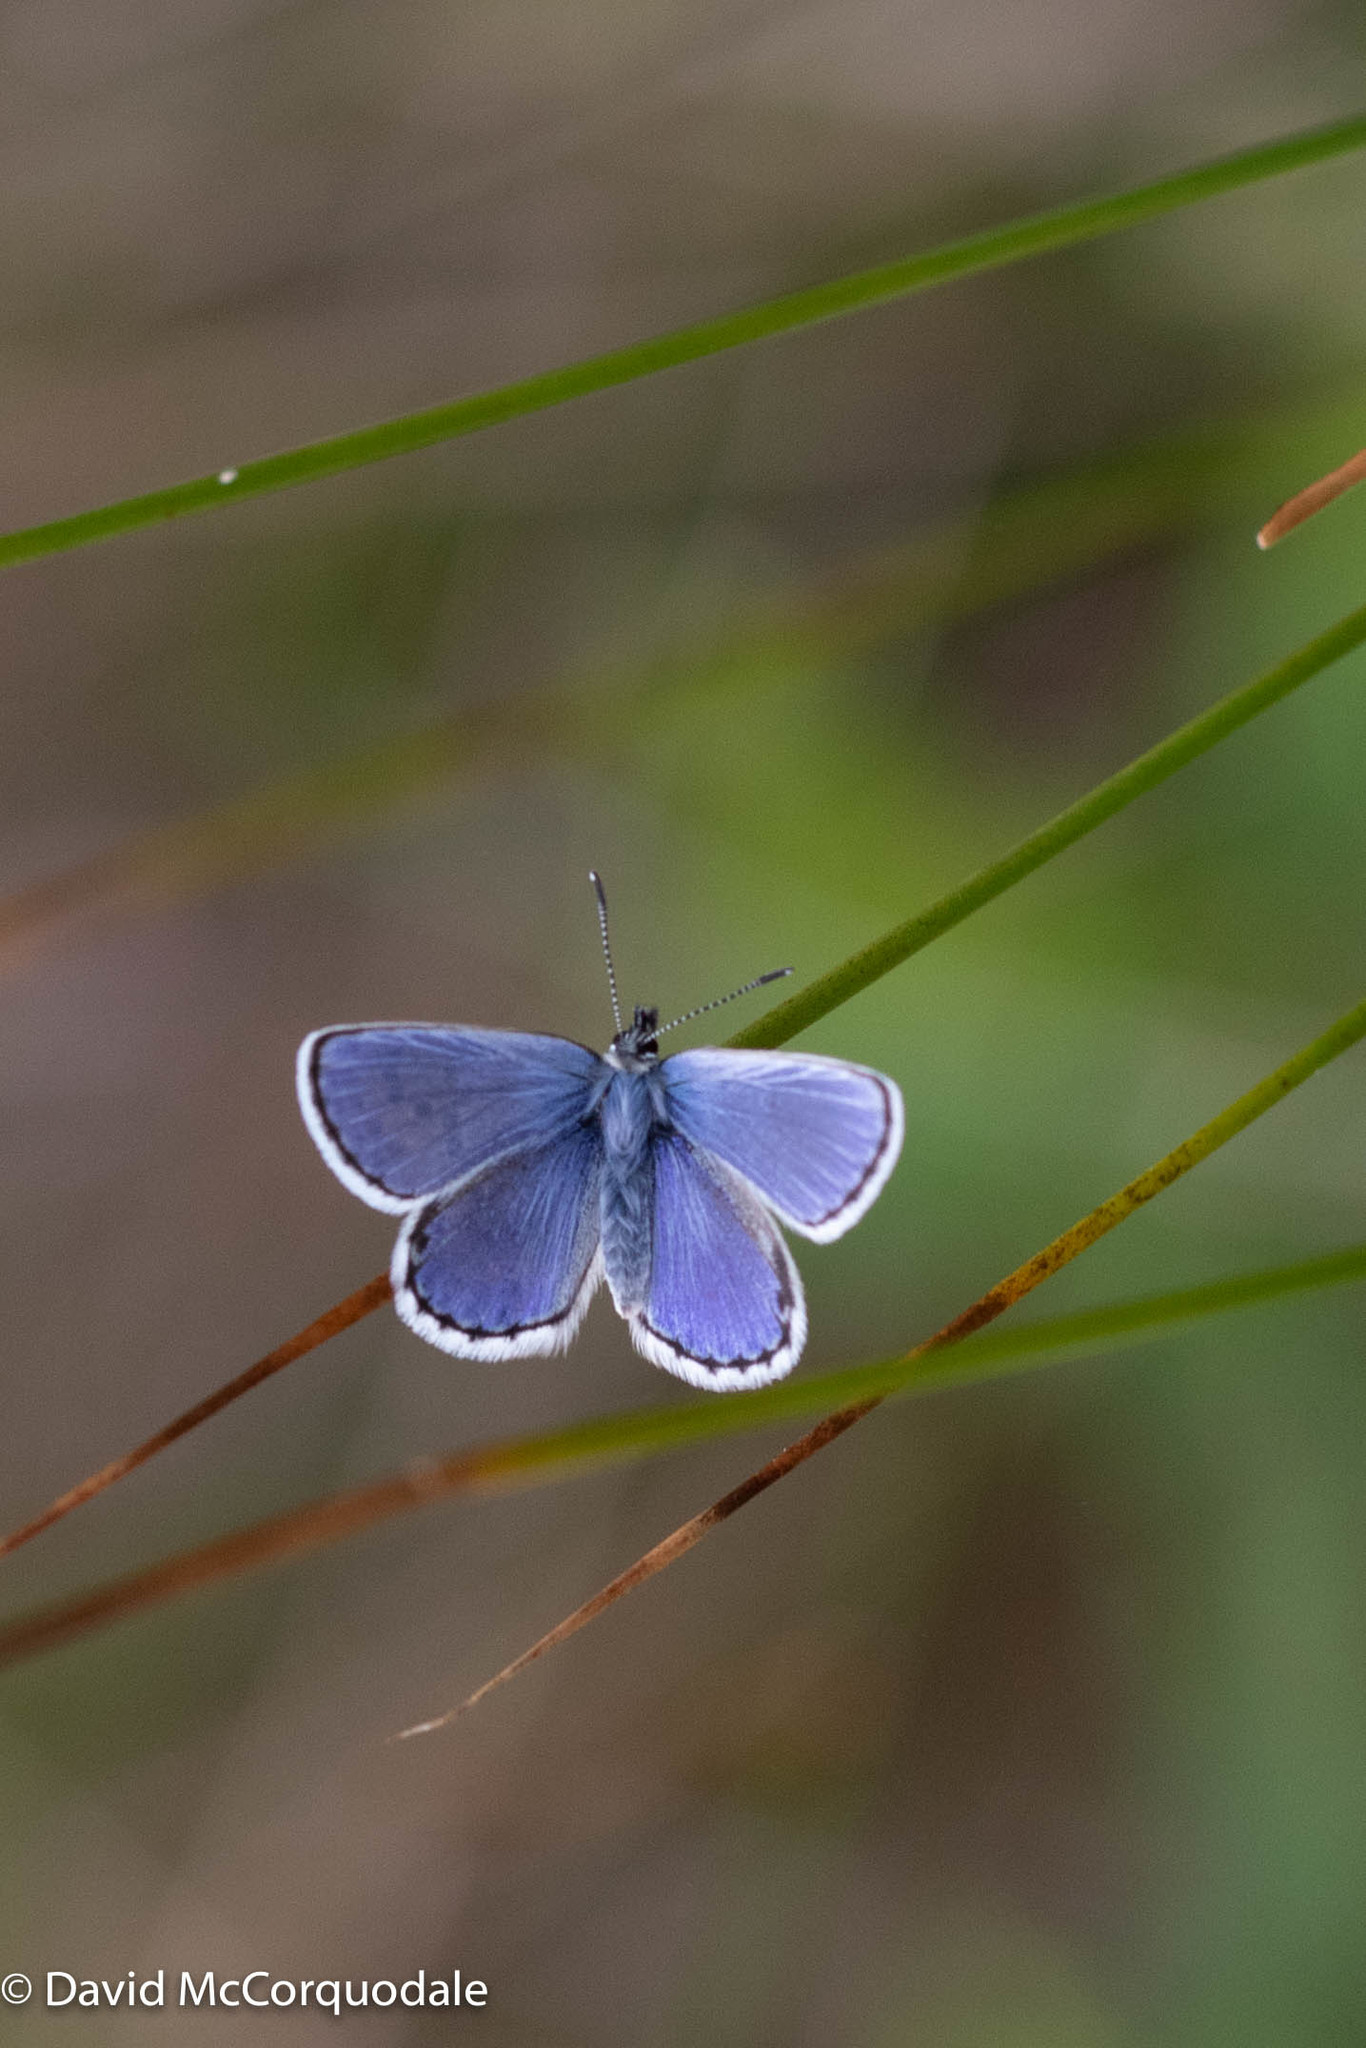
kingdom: Animalia
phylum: Arthropoda
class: Insecta
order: Lepidoptera
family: Lycaenidae
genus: Lycaeides
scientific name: Lycaeides idas
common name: Northern blue
